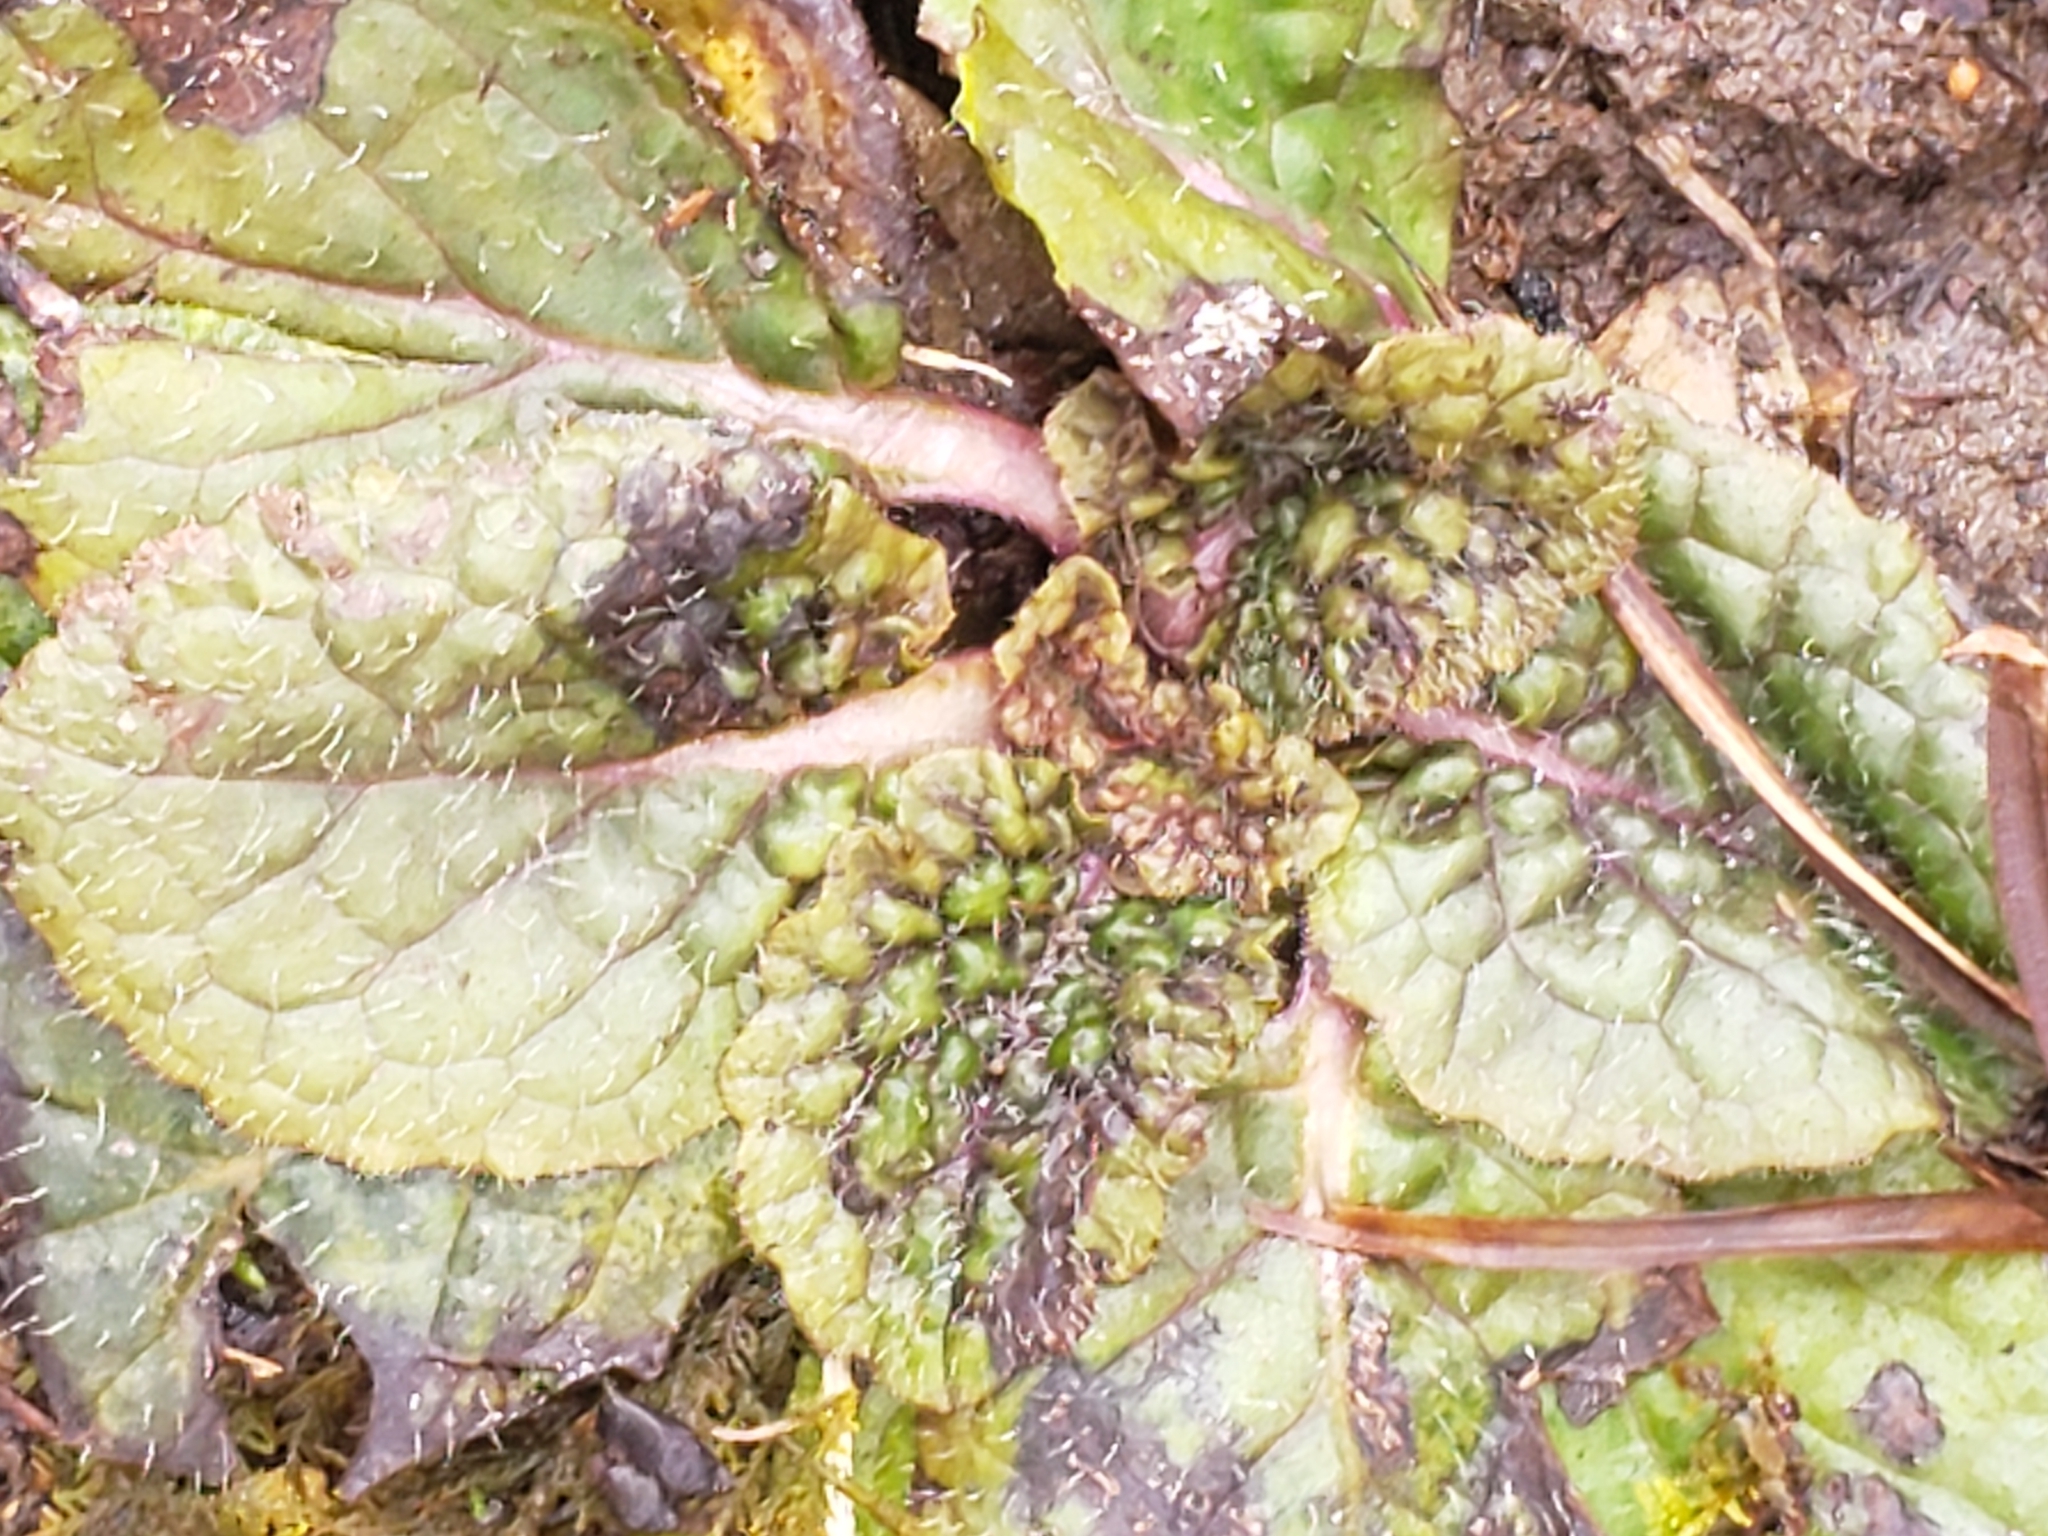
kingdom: Plantae
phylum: Tracheophyta
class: Magnoliopsida
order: Lamiales
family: Lamiaceae
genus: Salvia
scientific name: Salvia lyrata
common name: Cancerweed
